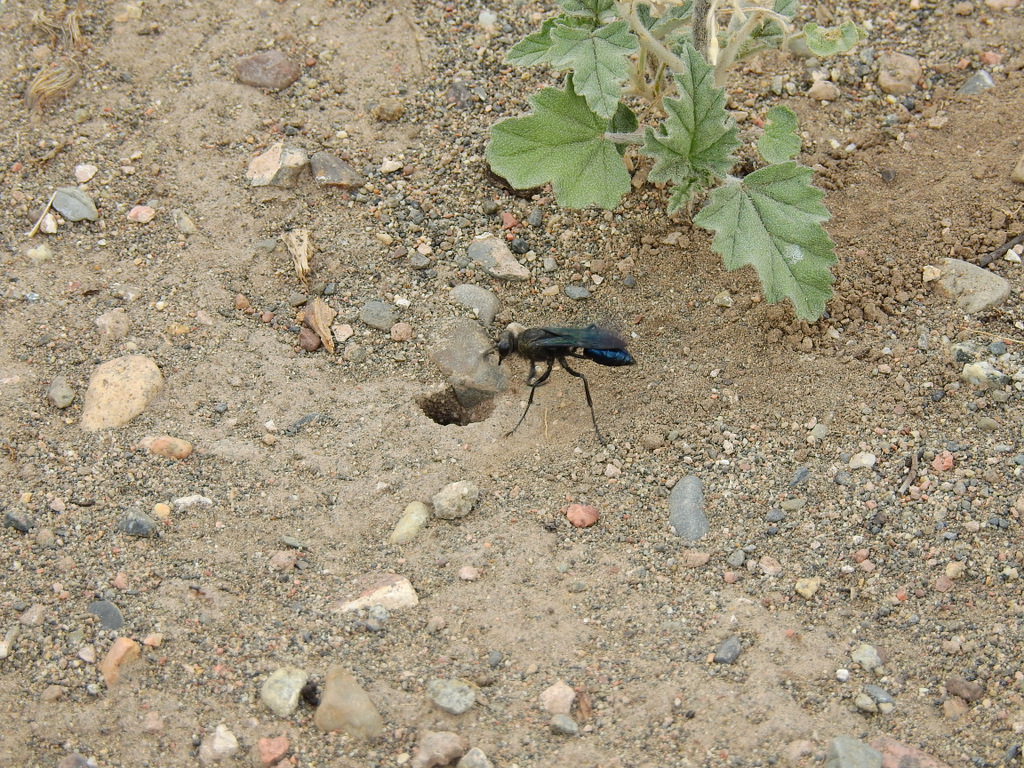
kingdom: Animalia
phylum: Arthropoda
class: Insecta
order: Hymenoptera
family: Sphecidae
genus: Stangeella
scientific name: Stangeella cyaniventris
